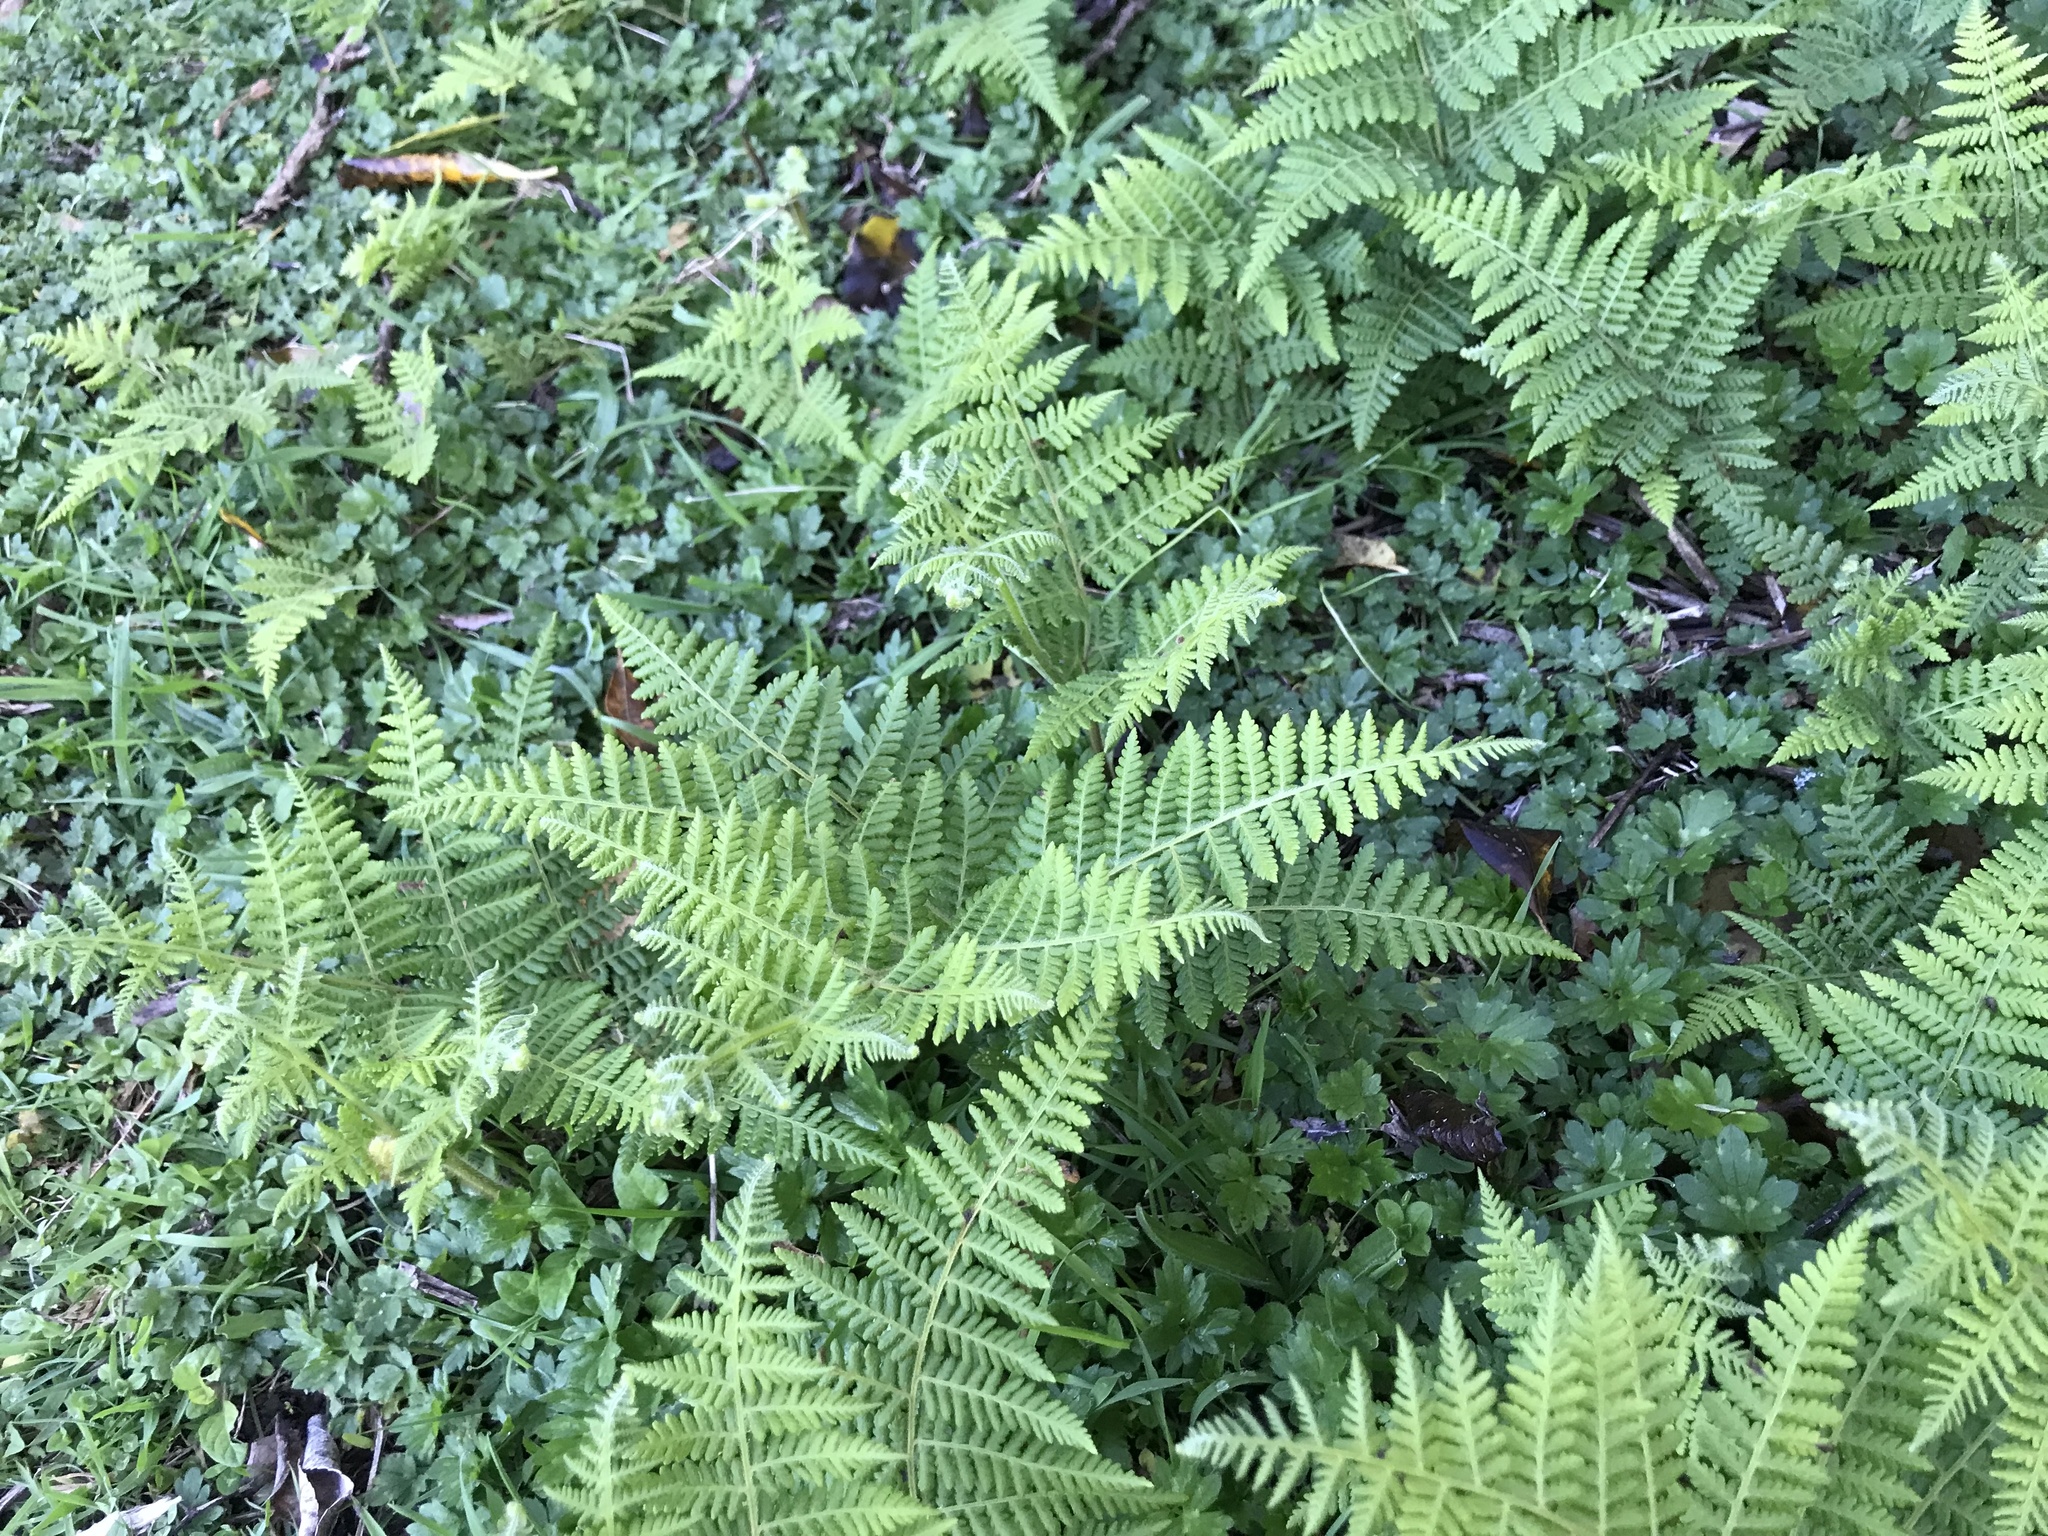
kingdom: Plantae
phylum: Tracheophyta
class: Polypodiopsida
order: Polypodiales
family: Dennstaedtiaceae
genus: Hypolepis
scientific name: Hypolepis ambigua
